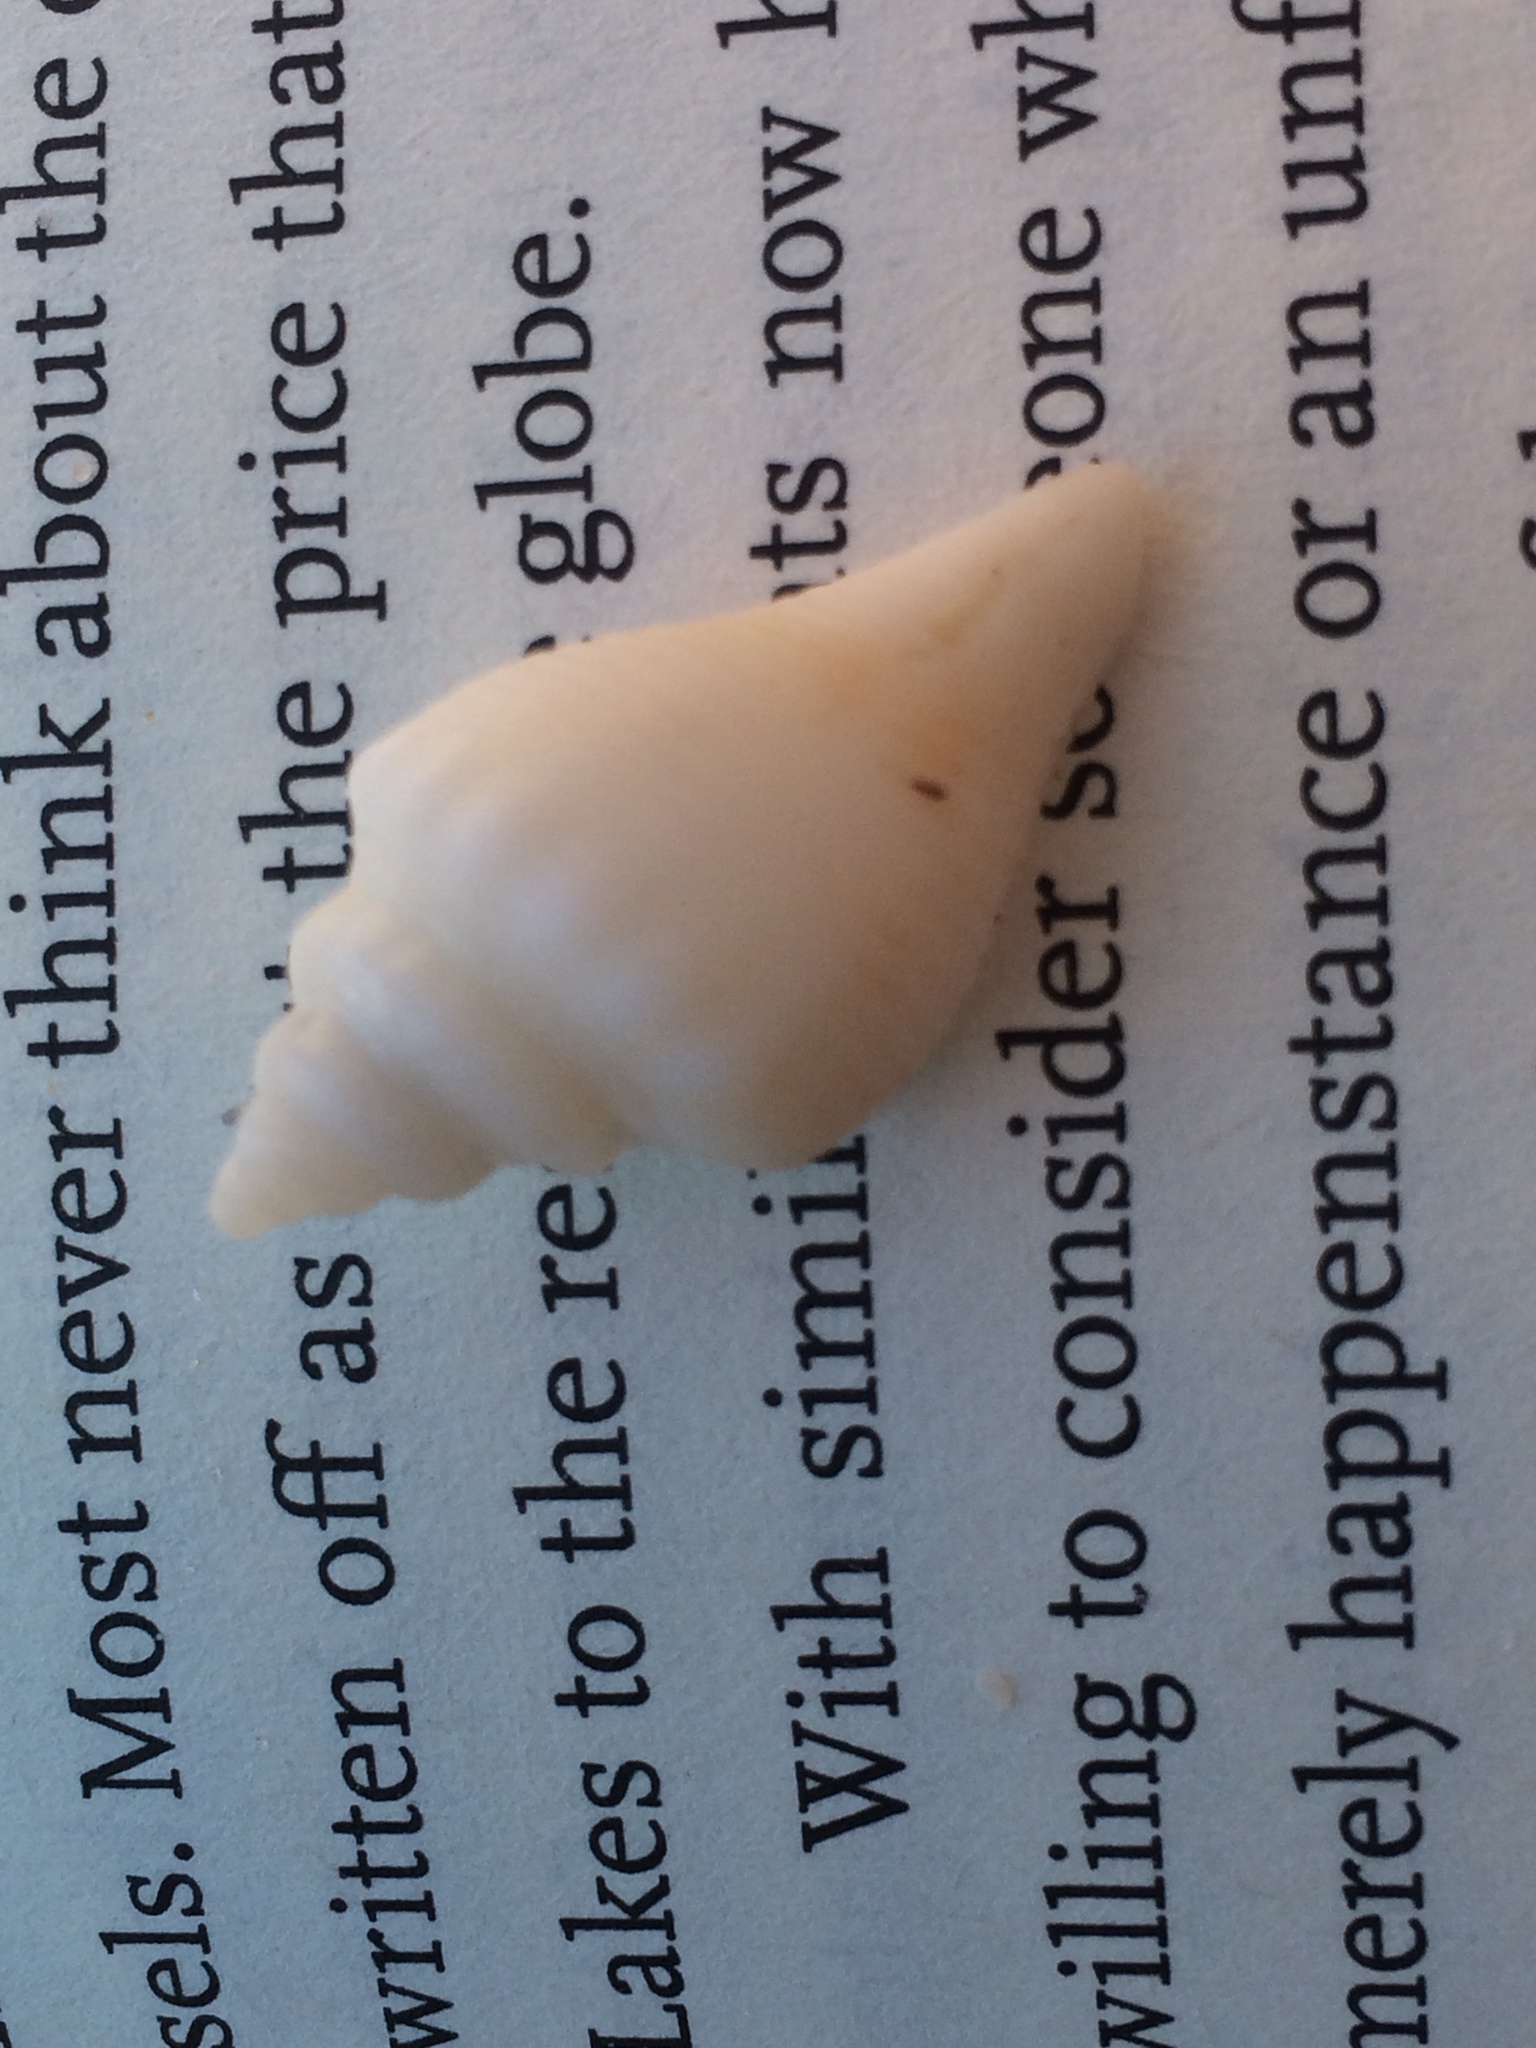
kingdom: Animalia
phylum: Mollusca
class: Gastropoda
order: Littorinimorpha
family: Strombidae
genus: Strombus
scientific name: Strombus alatus
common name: Florida fighting conch
